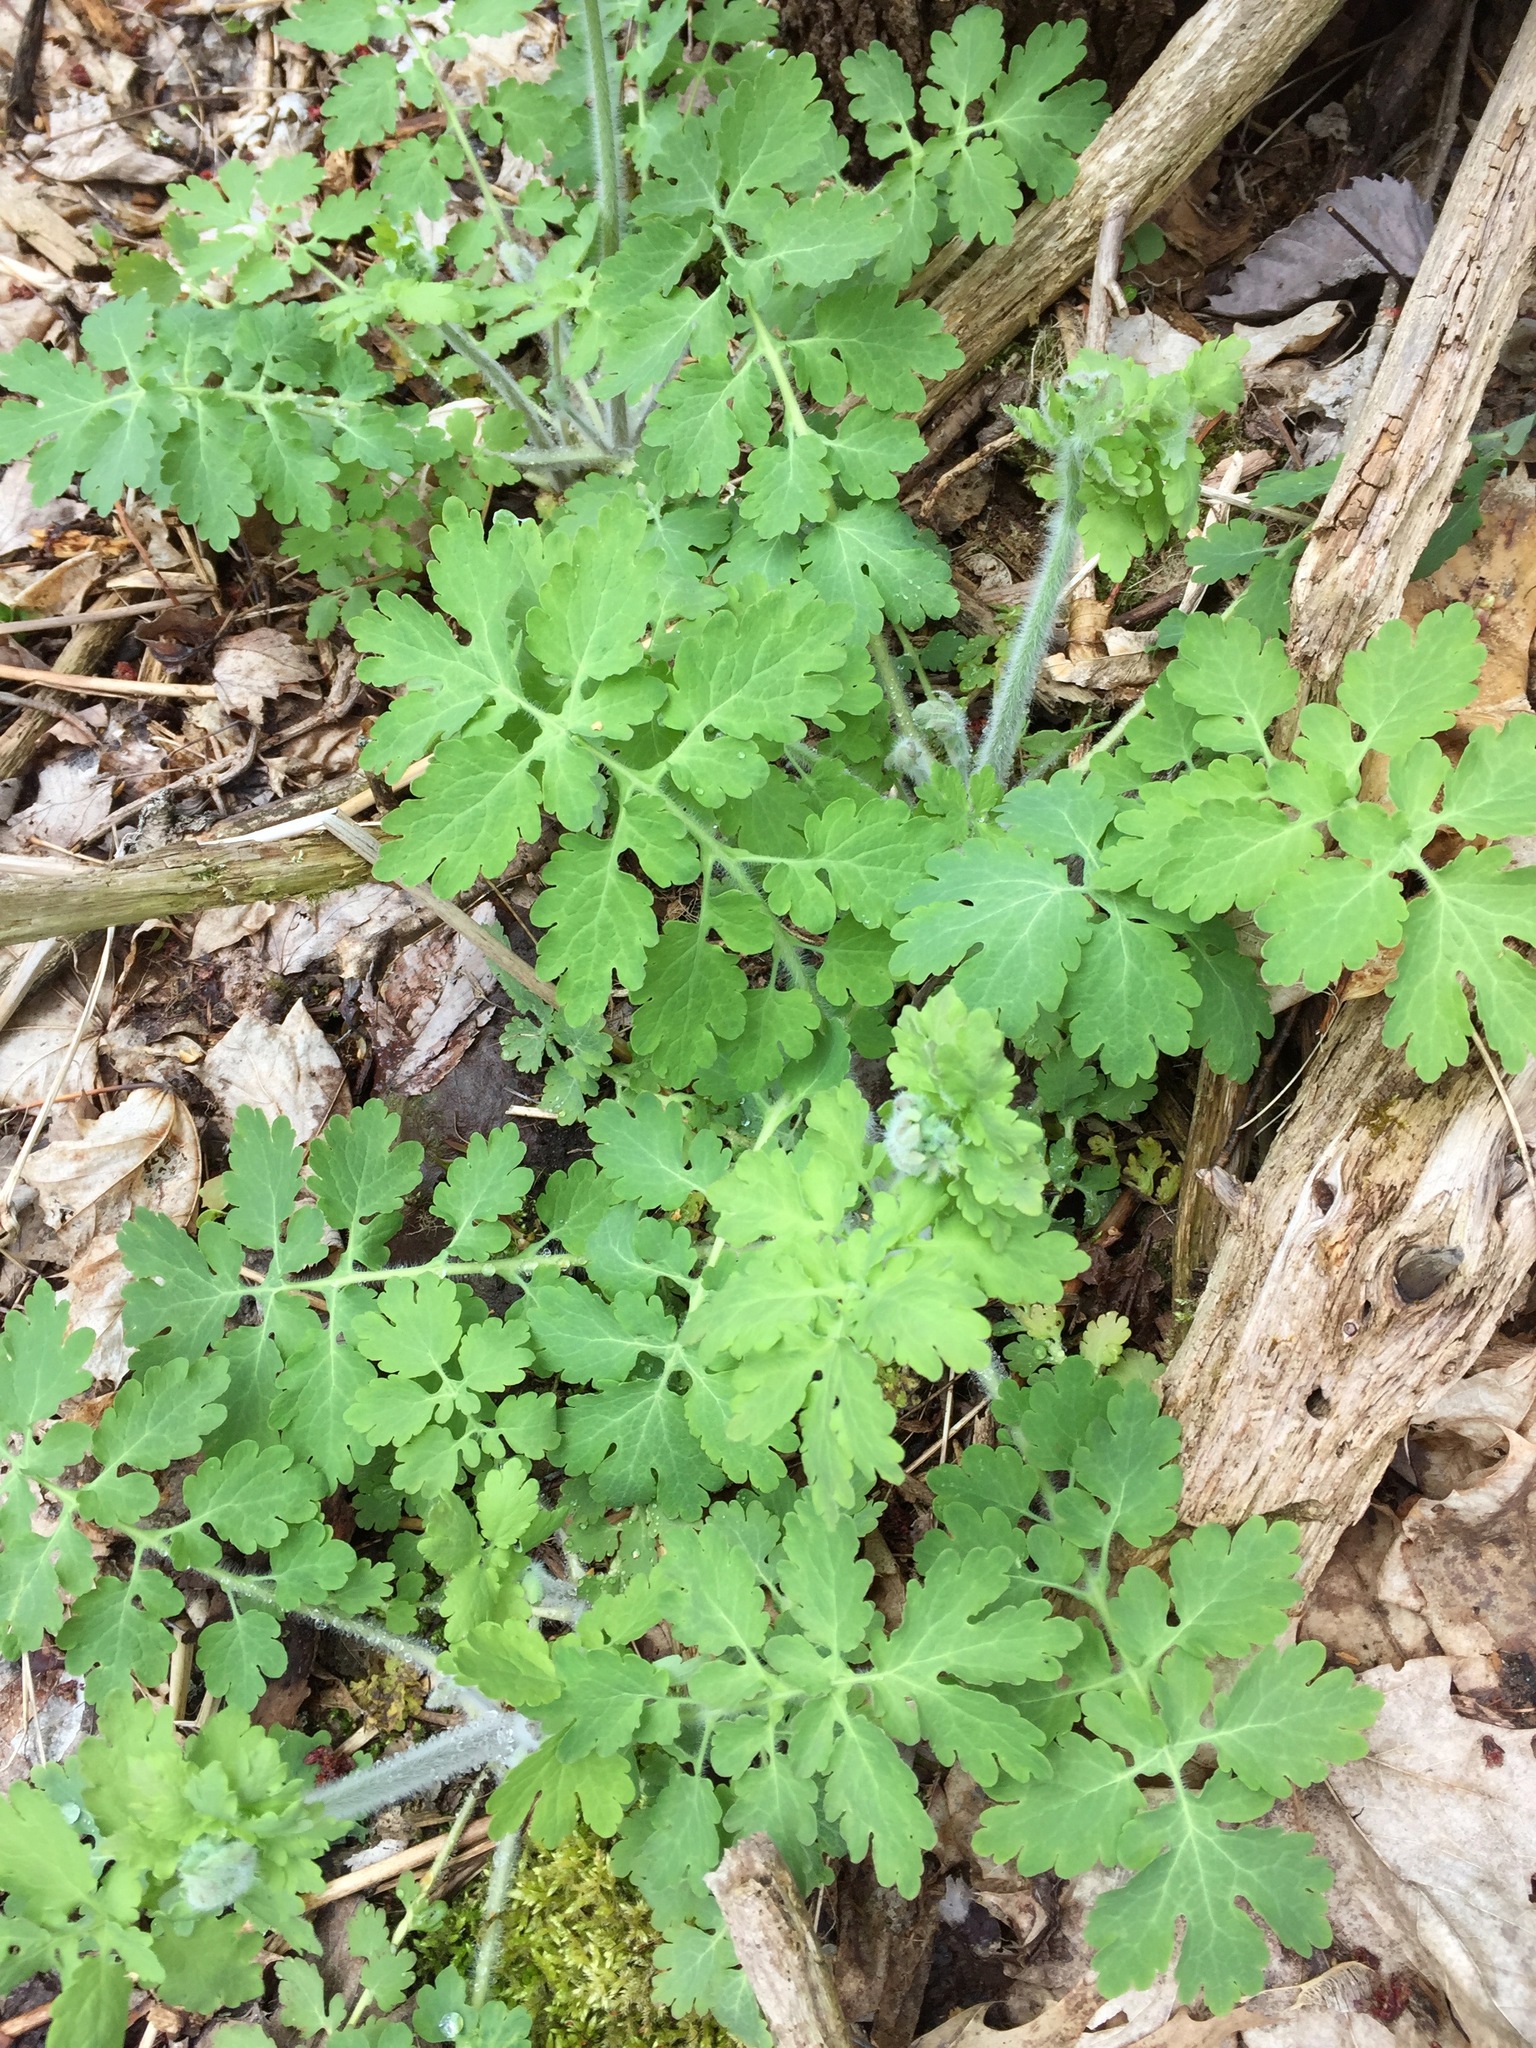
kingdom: Plantae
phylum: Tracheophyta
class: Magnoliopsida
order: Ranunculales
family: Papaveraceae
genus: Chelidonium
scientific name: Chelidonium majus
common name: Greater celandine
